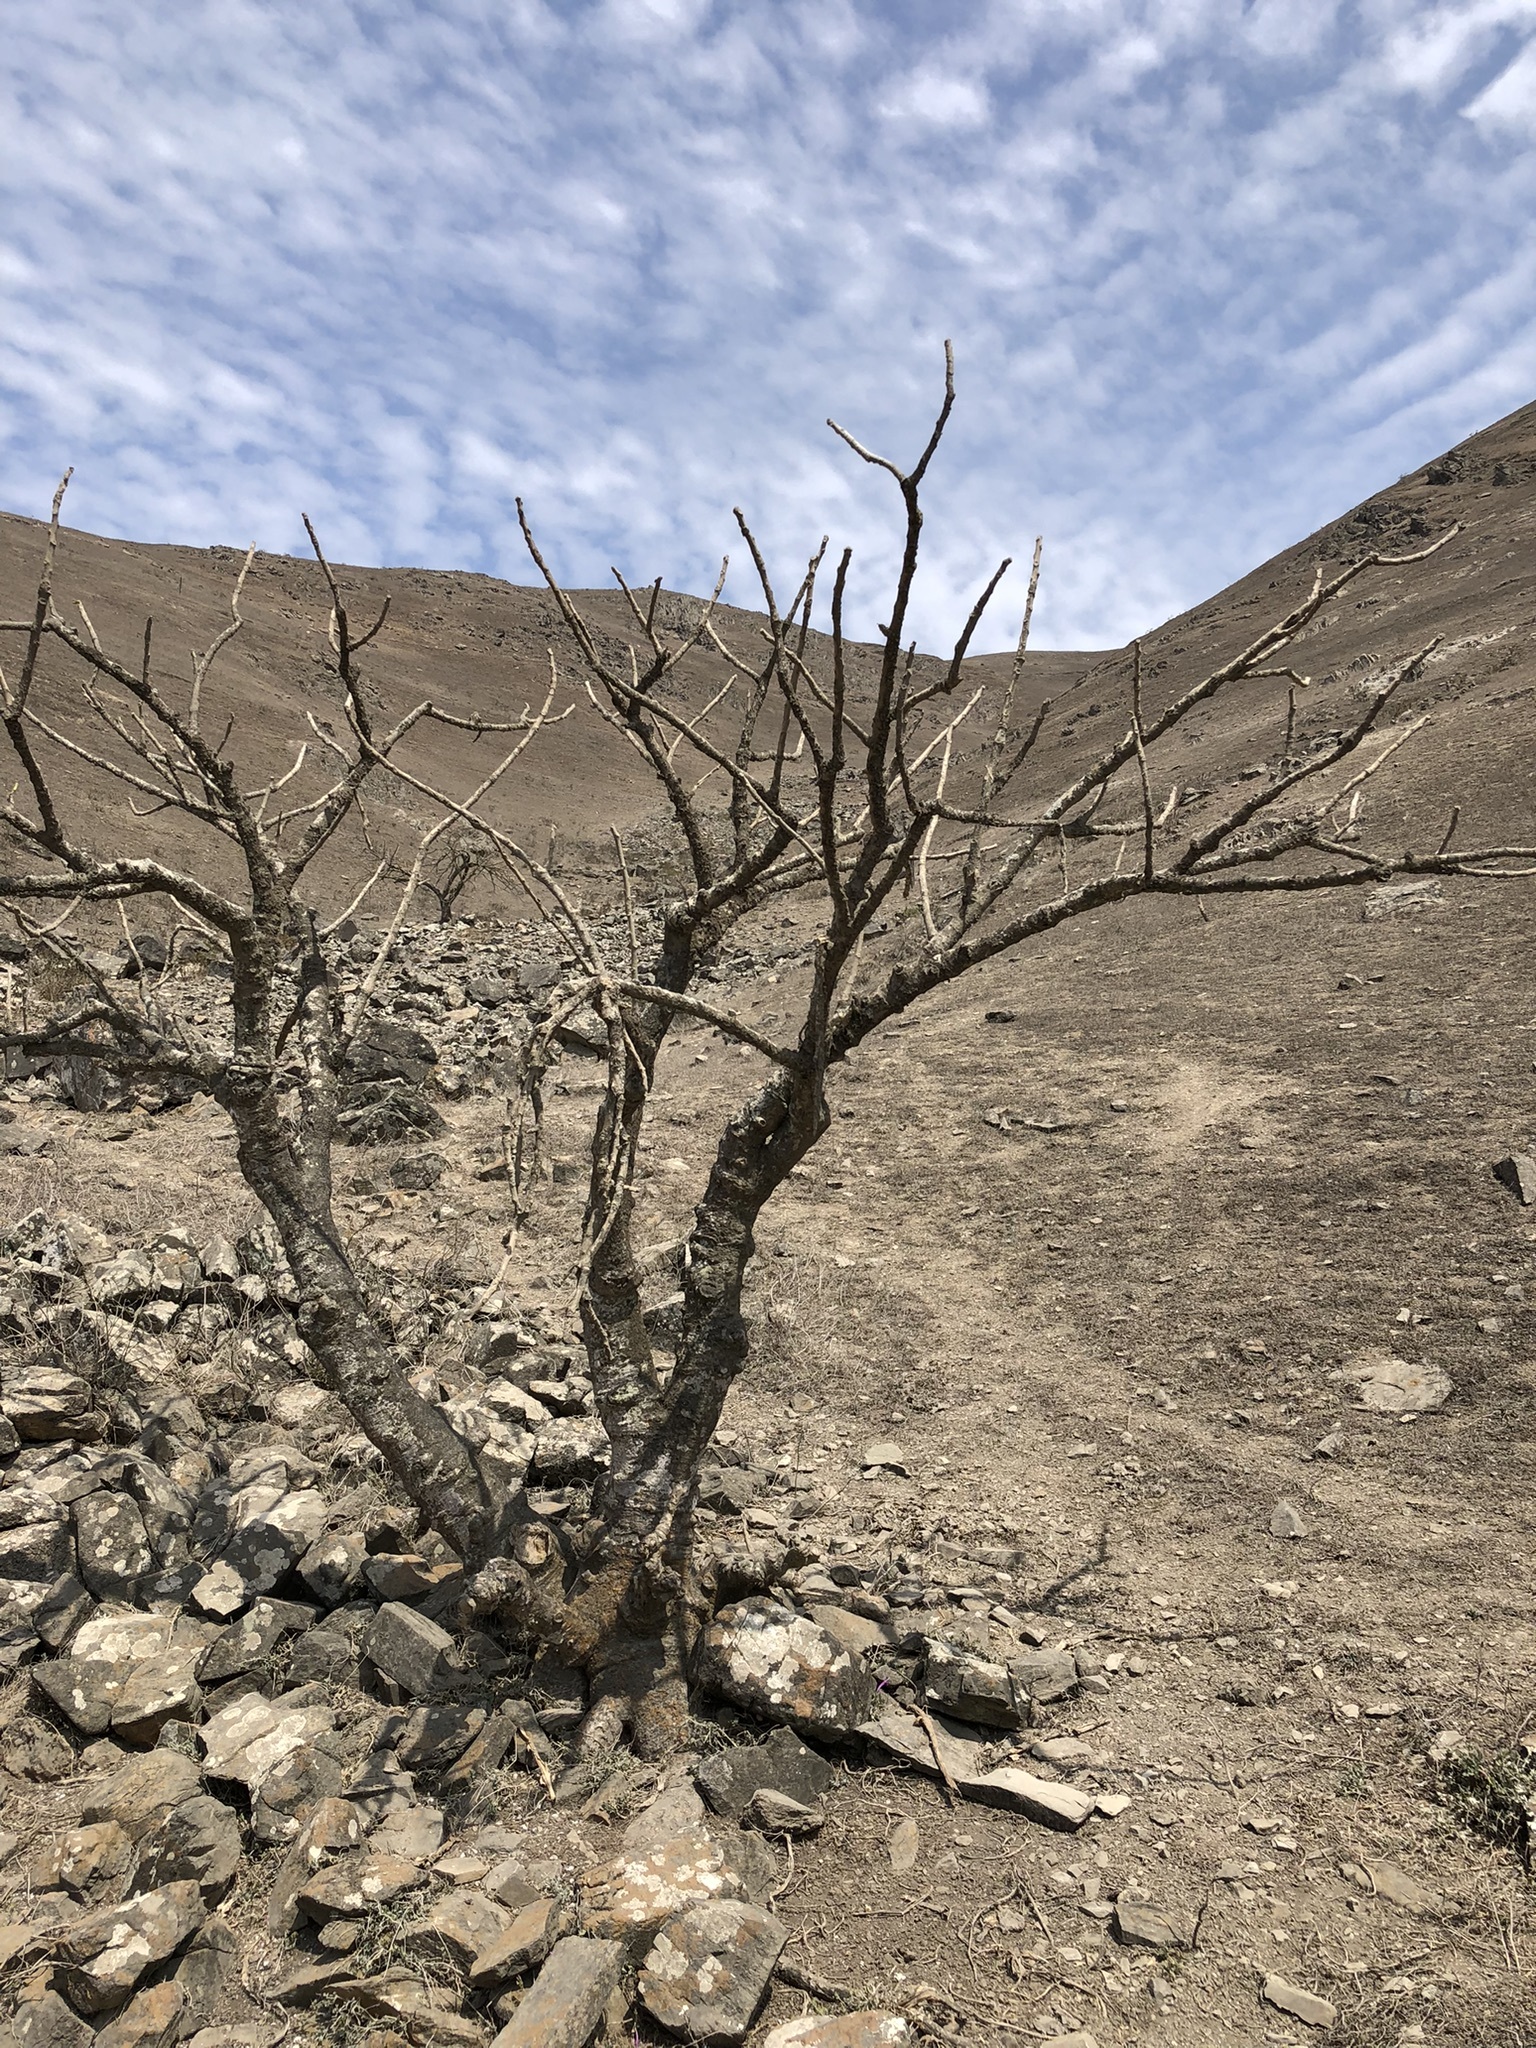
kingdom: Plantae
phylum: Tracheophyta
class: Magnoliopsida
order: Brassicales
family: Caricaceae
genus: Vasconcellea
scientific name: Vasconcellea candicans
